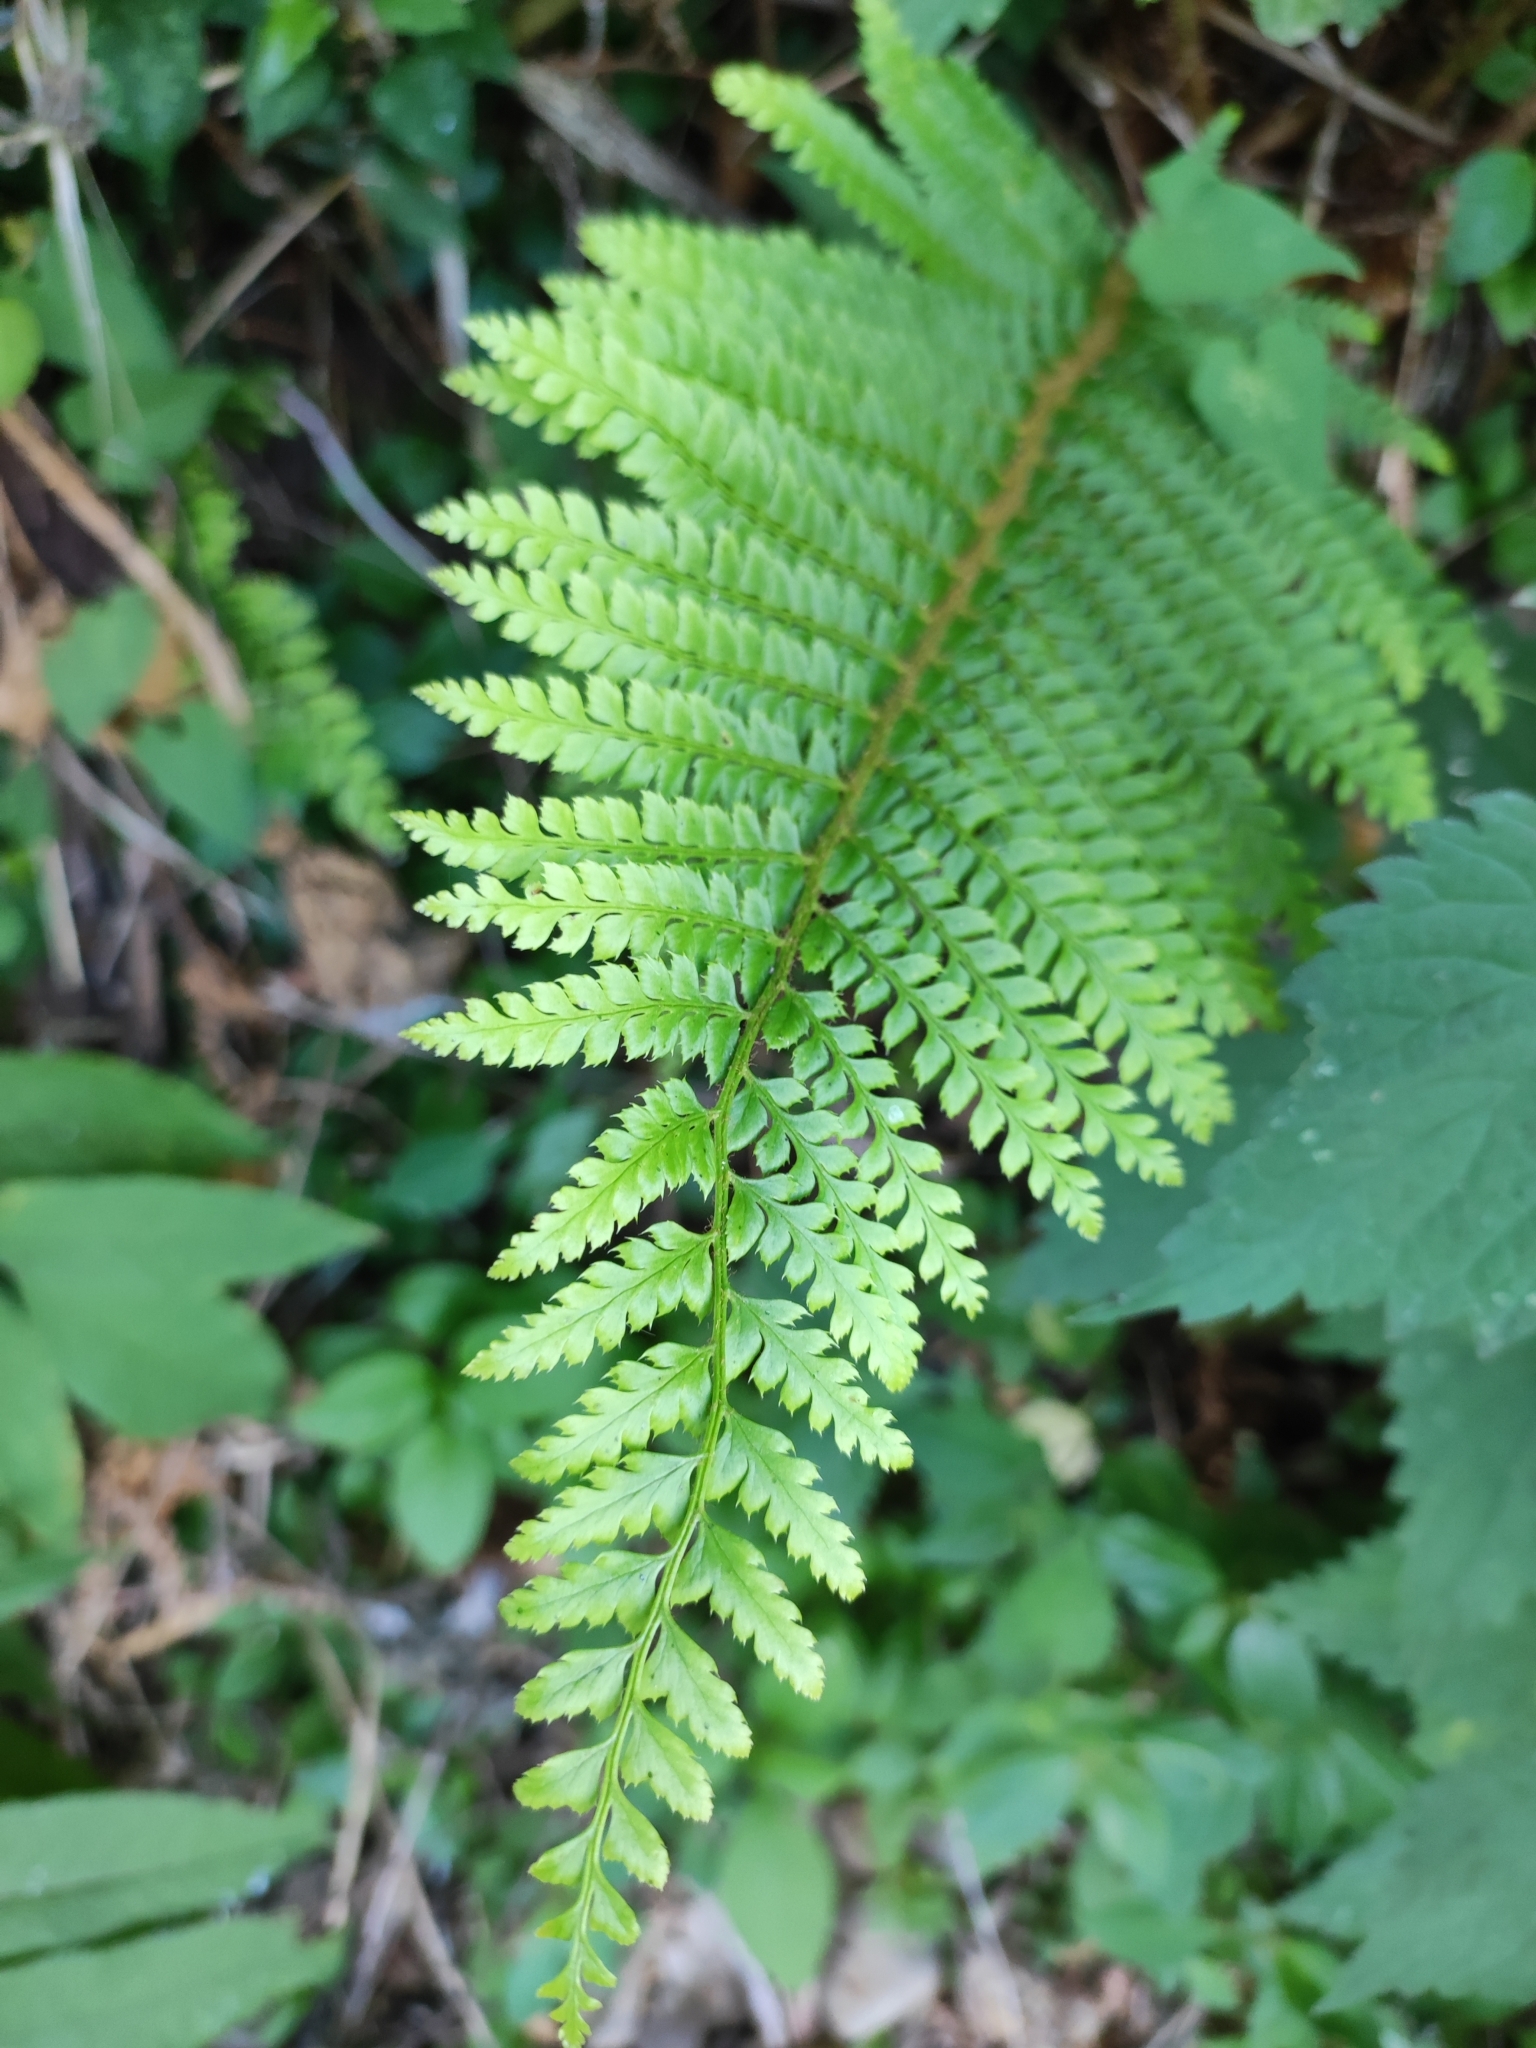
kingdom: Plantae
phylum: Tracheophyta
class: Polypodiopsida
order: Polypodiales
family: Dryopteridaceae
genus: Polystichum
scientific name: Polystichum setiferum
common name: Soft shield-fern
